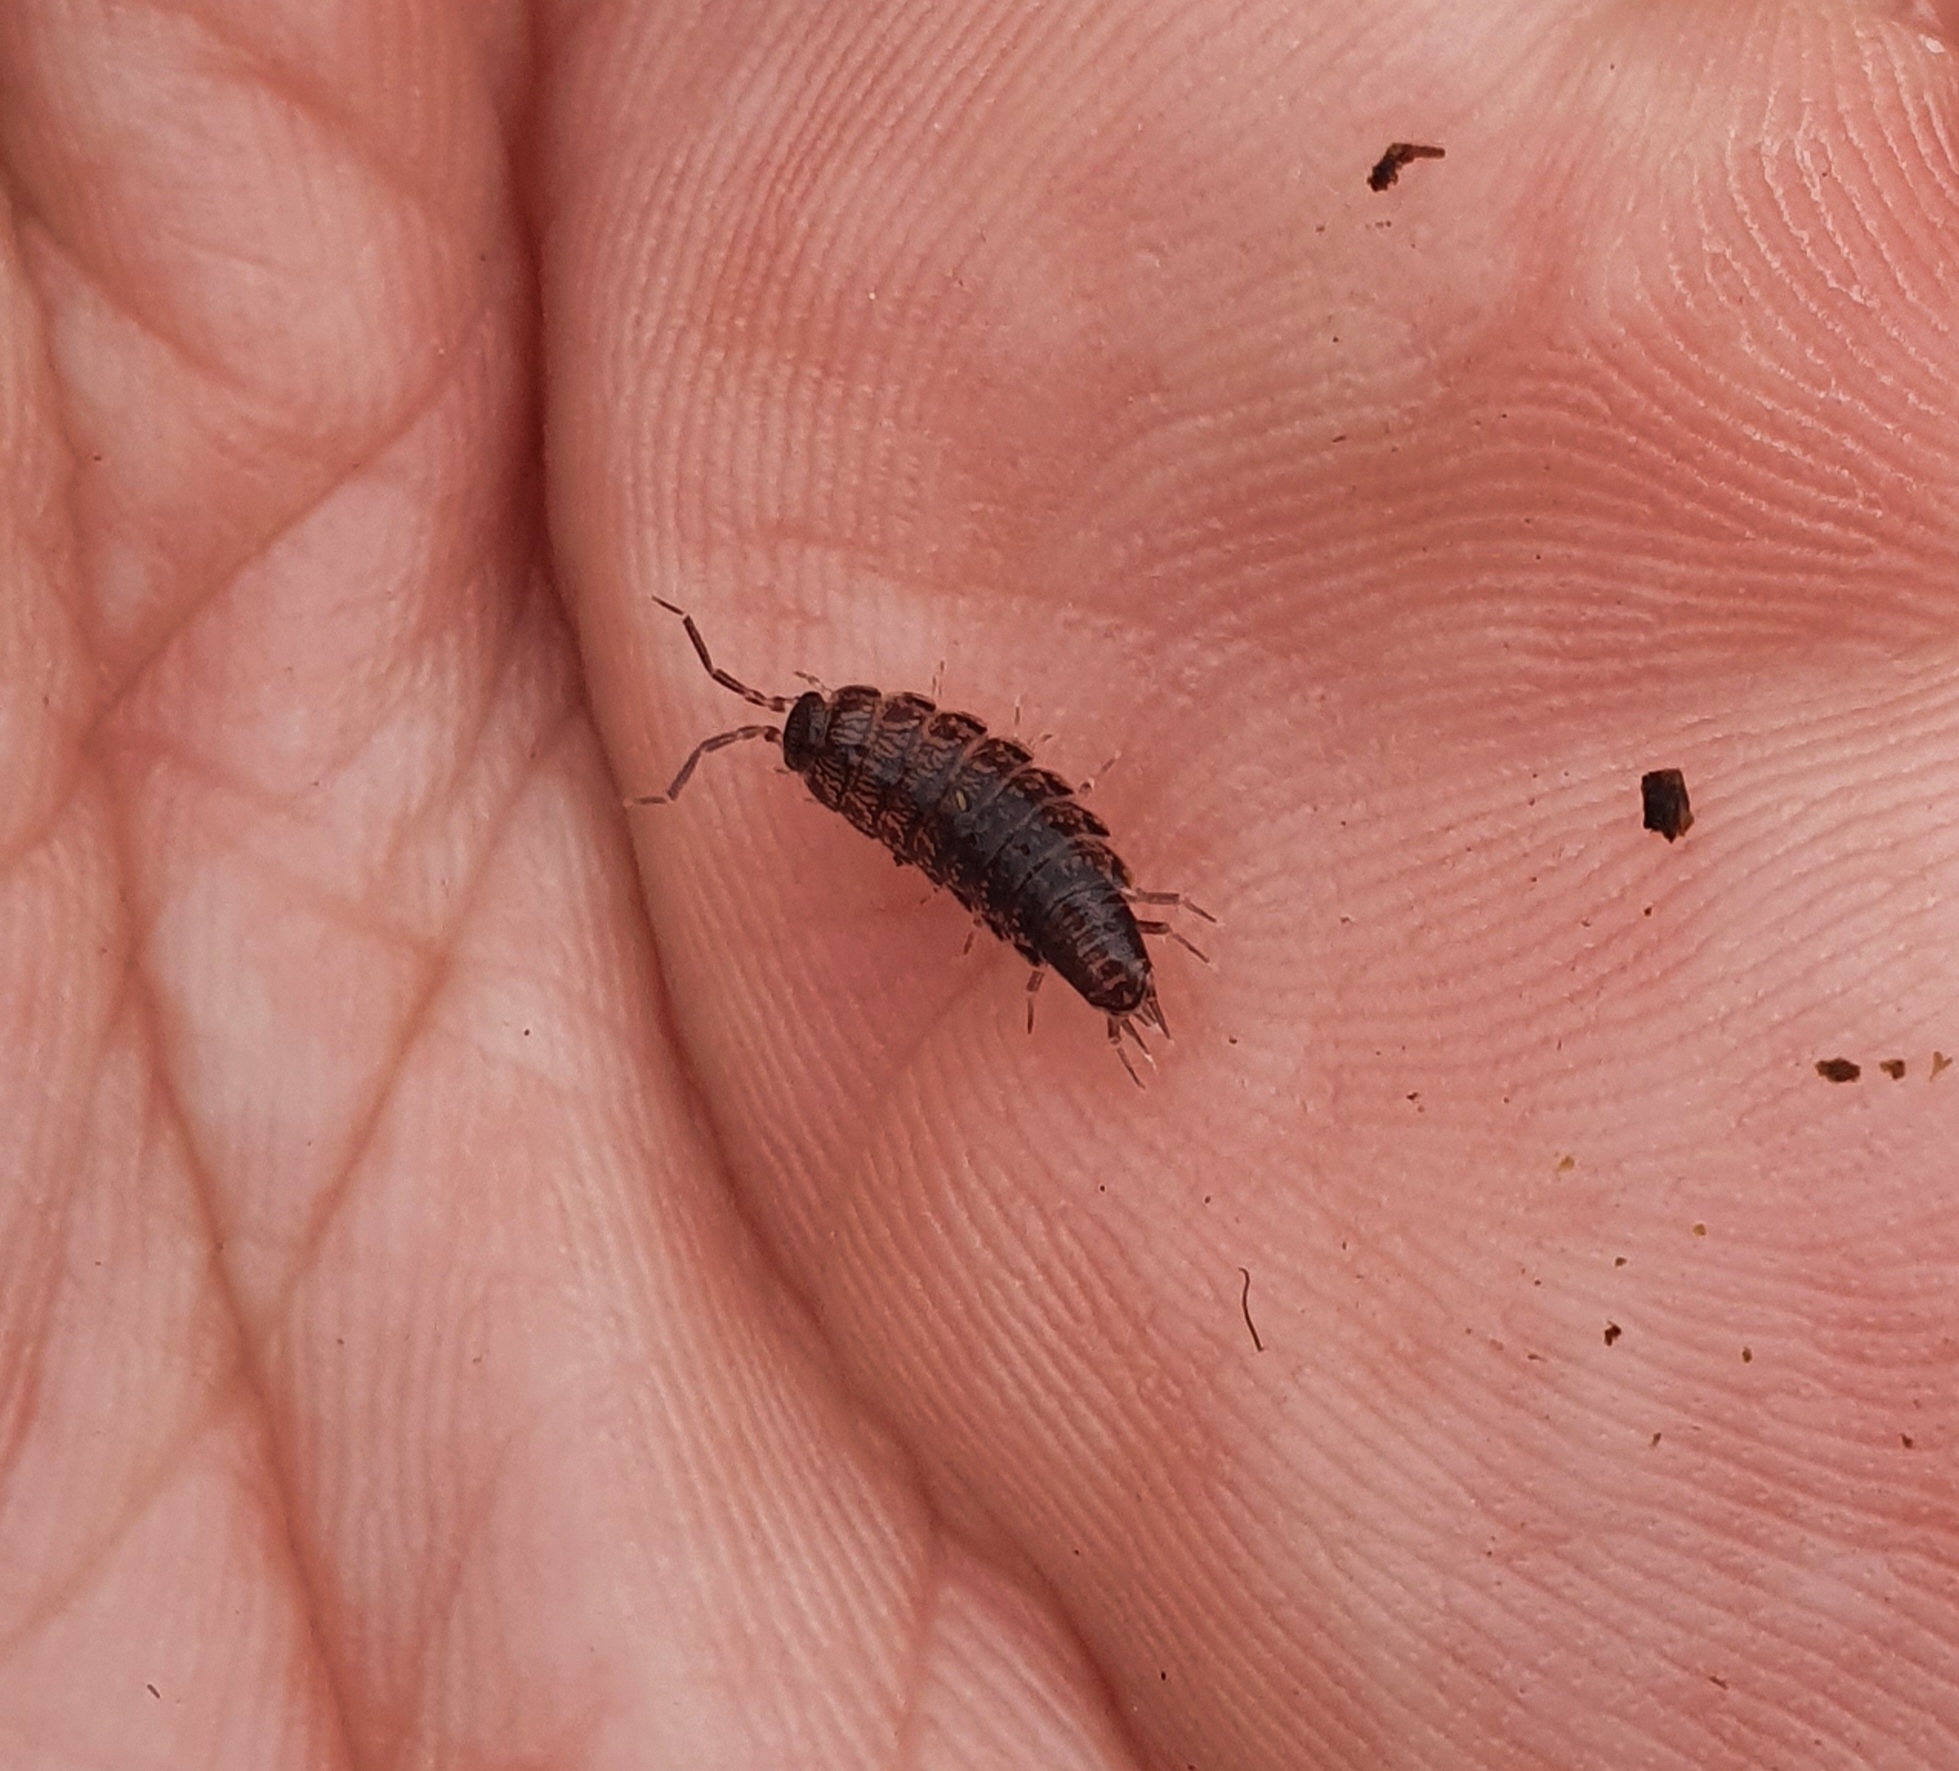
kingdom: Animalia
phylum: Arthropoda
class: Malacostraca
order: Isopoda
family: Philosciidae
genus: Chaetophiloscia
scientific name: Chaetophiloscia elongata
